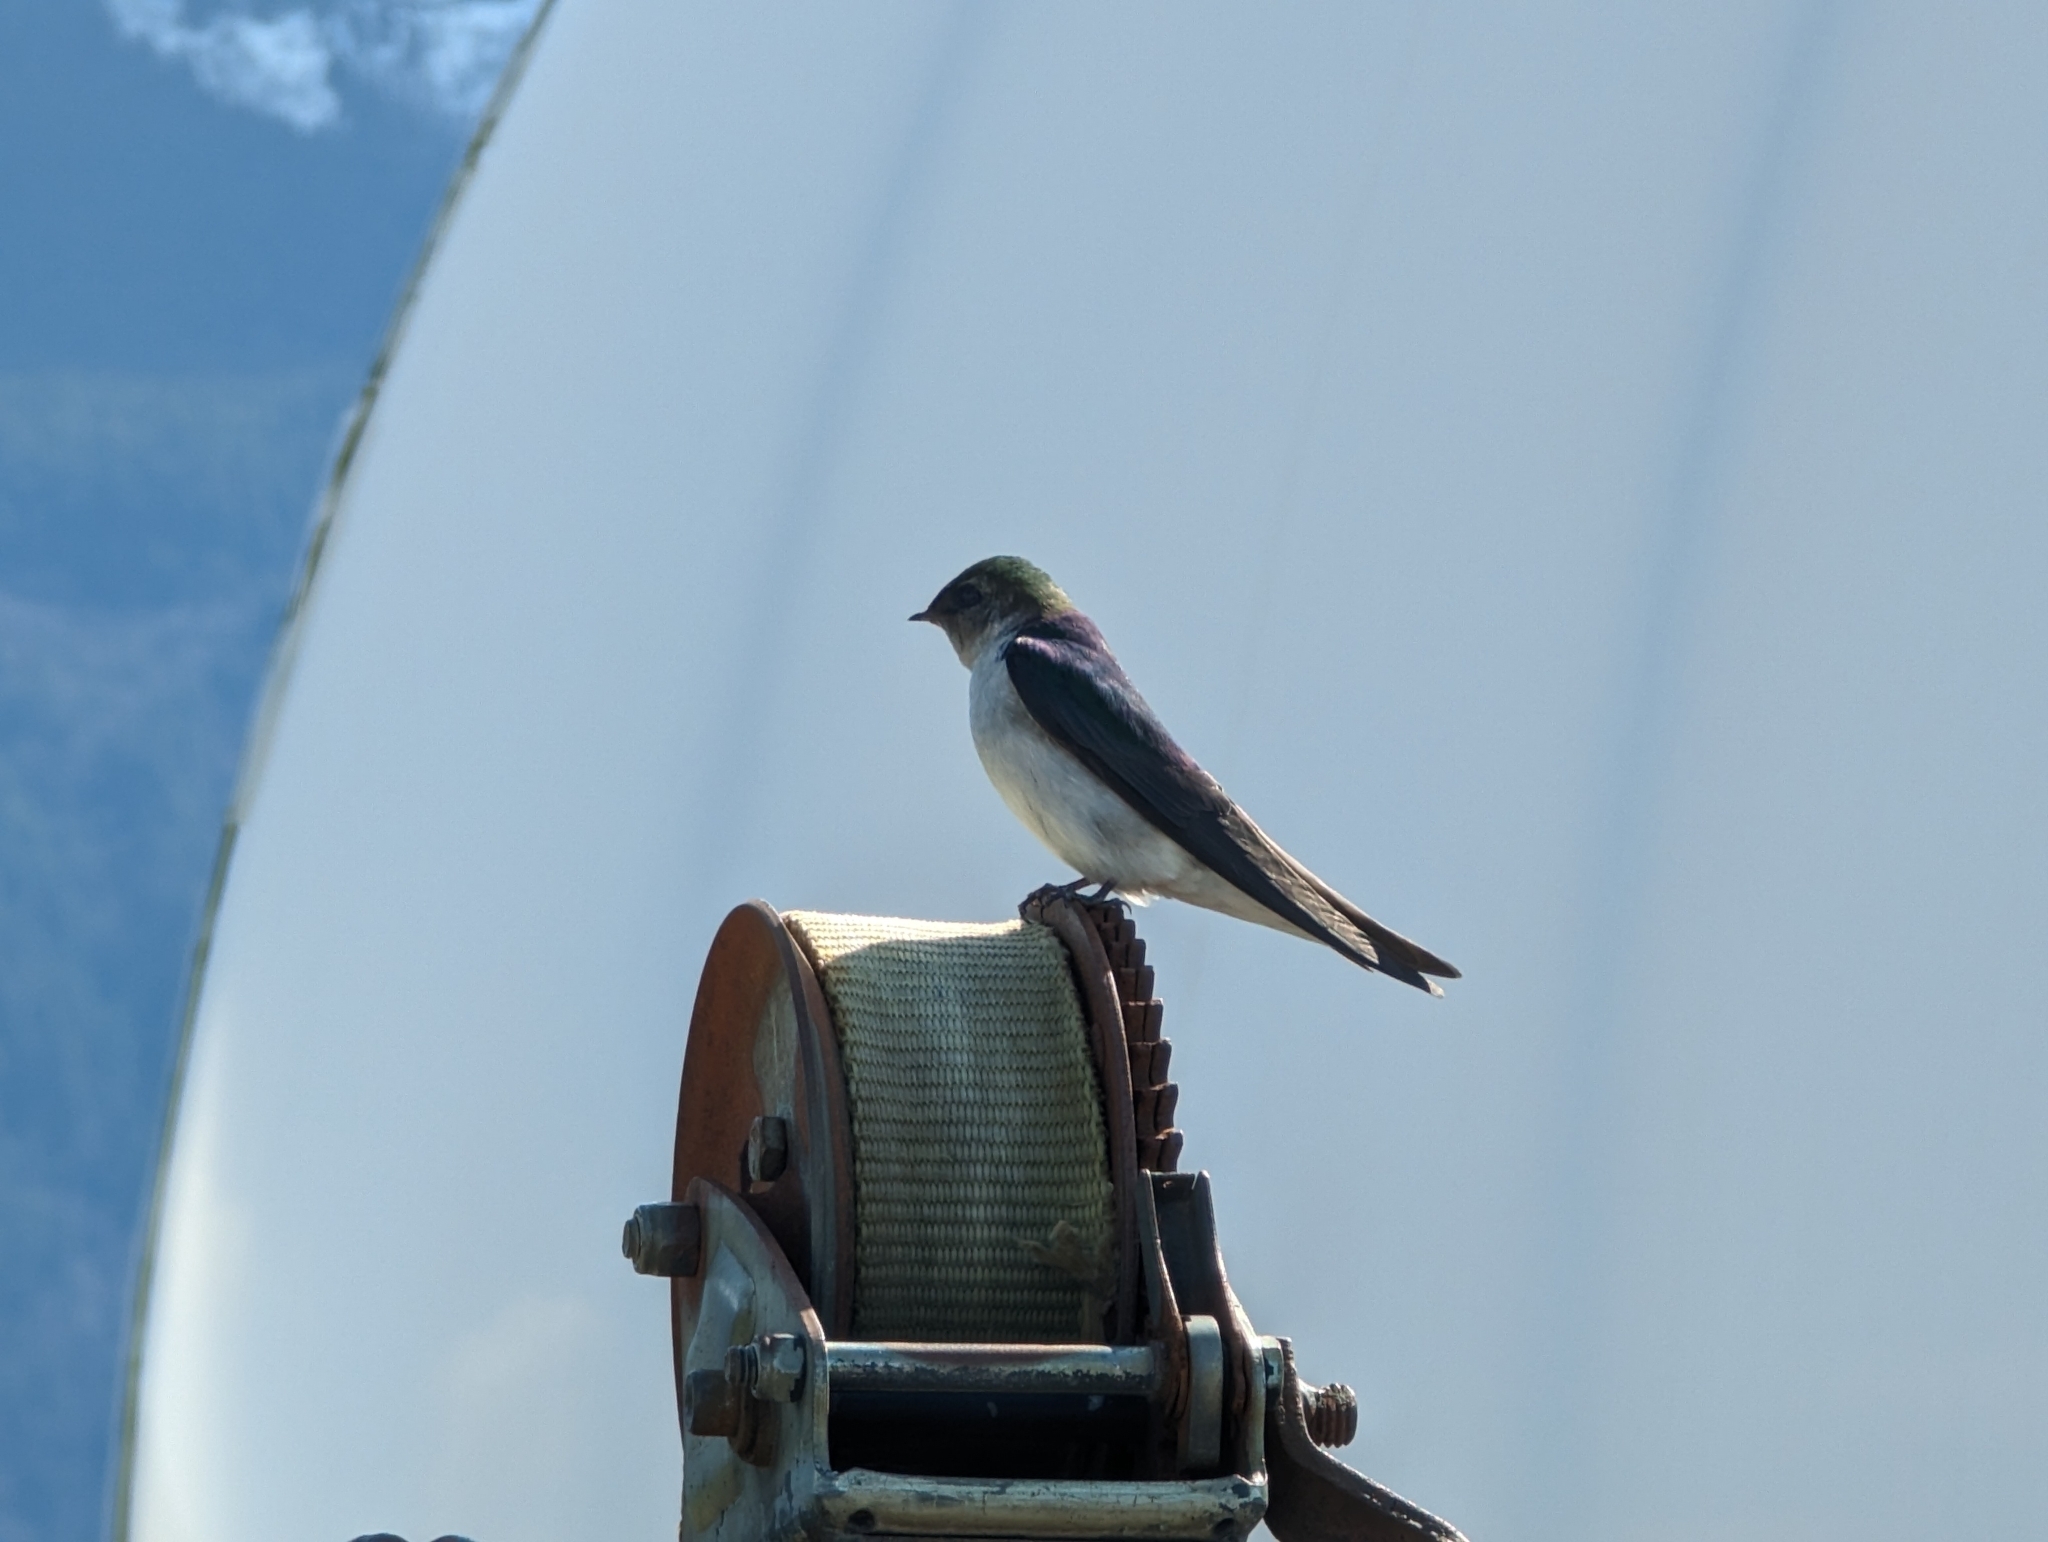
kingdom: Animalia
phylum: Chordata
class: Aves
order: Passeriformes
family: Hirundinidae
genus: Tachycineta
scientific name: Tachycineta thalassina
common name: Violet-green swallow
